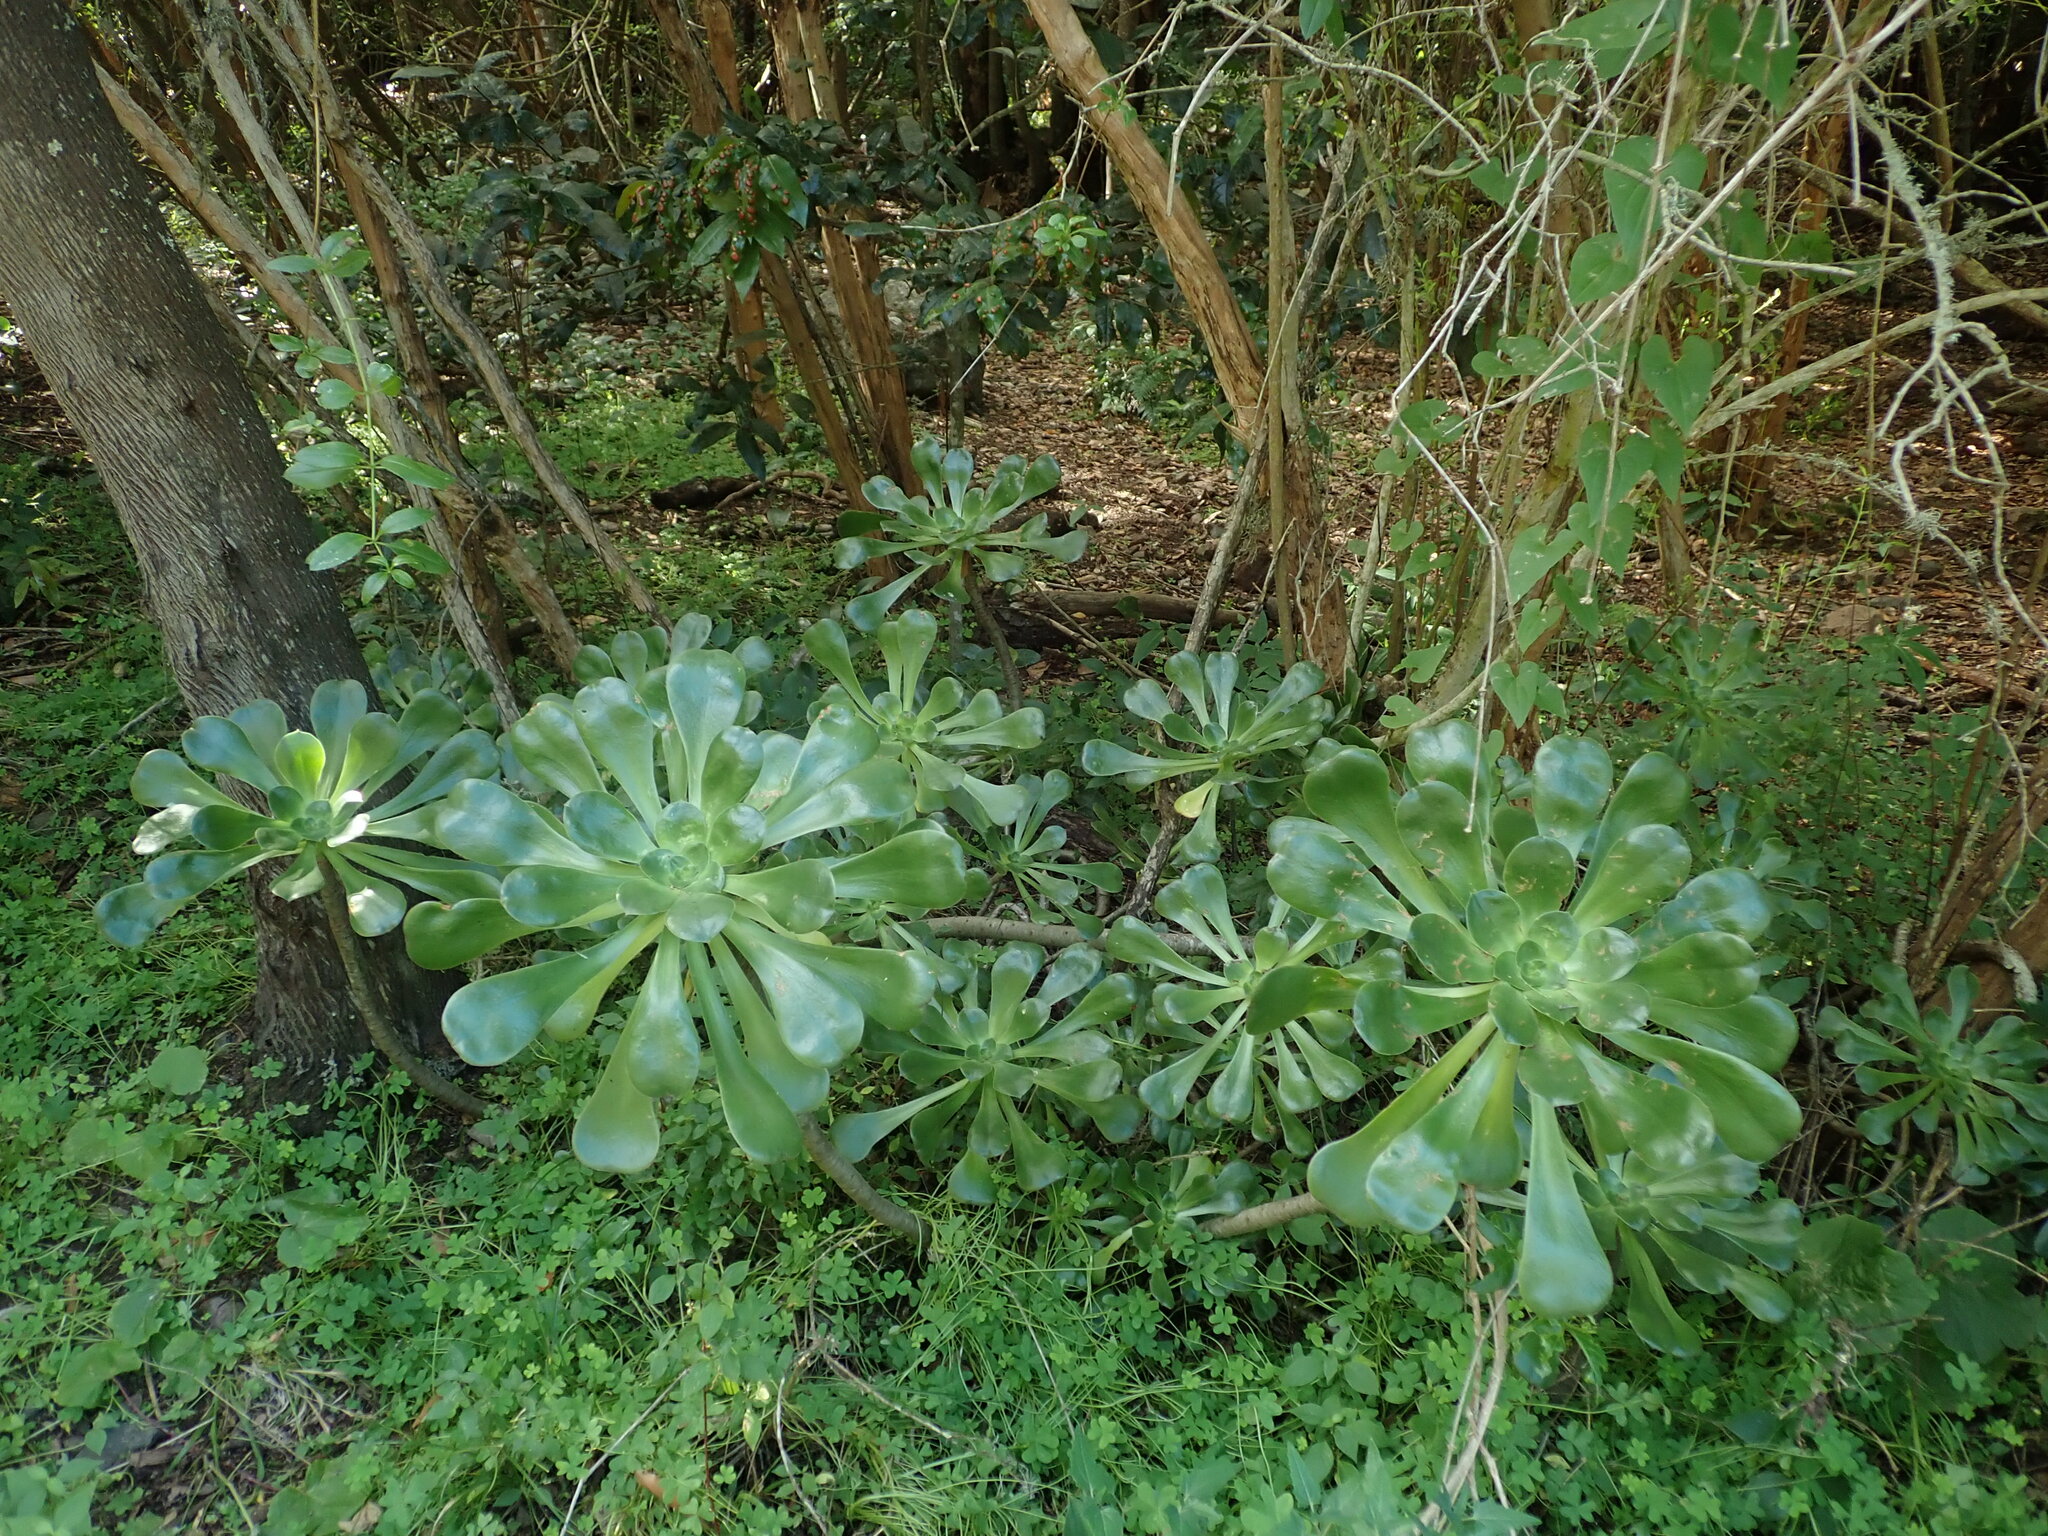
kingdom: Plantae
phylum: Tracheophyta
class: Magnoliopsida
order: Saxifragales
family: Crassulaceae
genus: Aeonium
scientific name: Aeonium undulatum
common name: Saucer-plant
